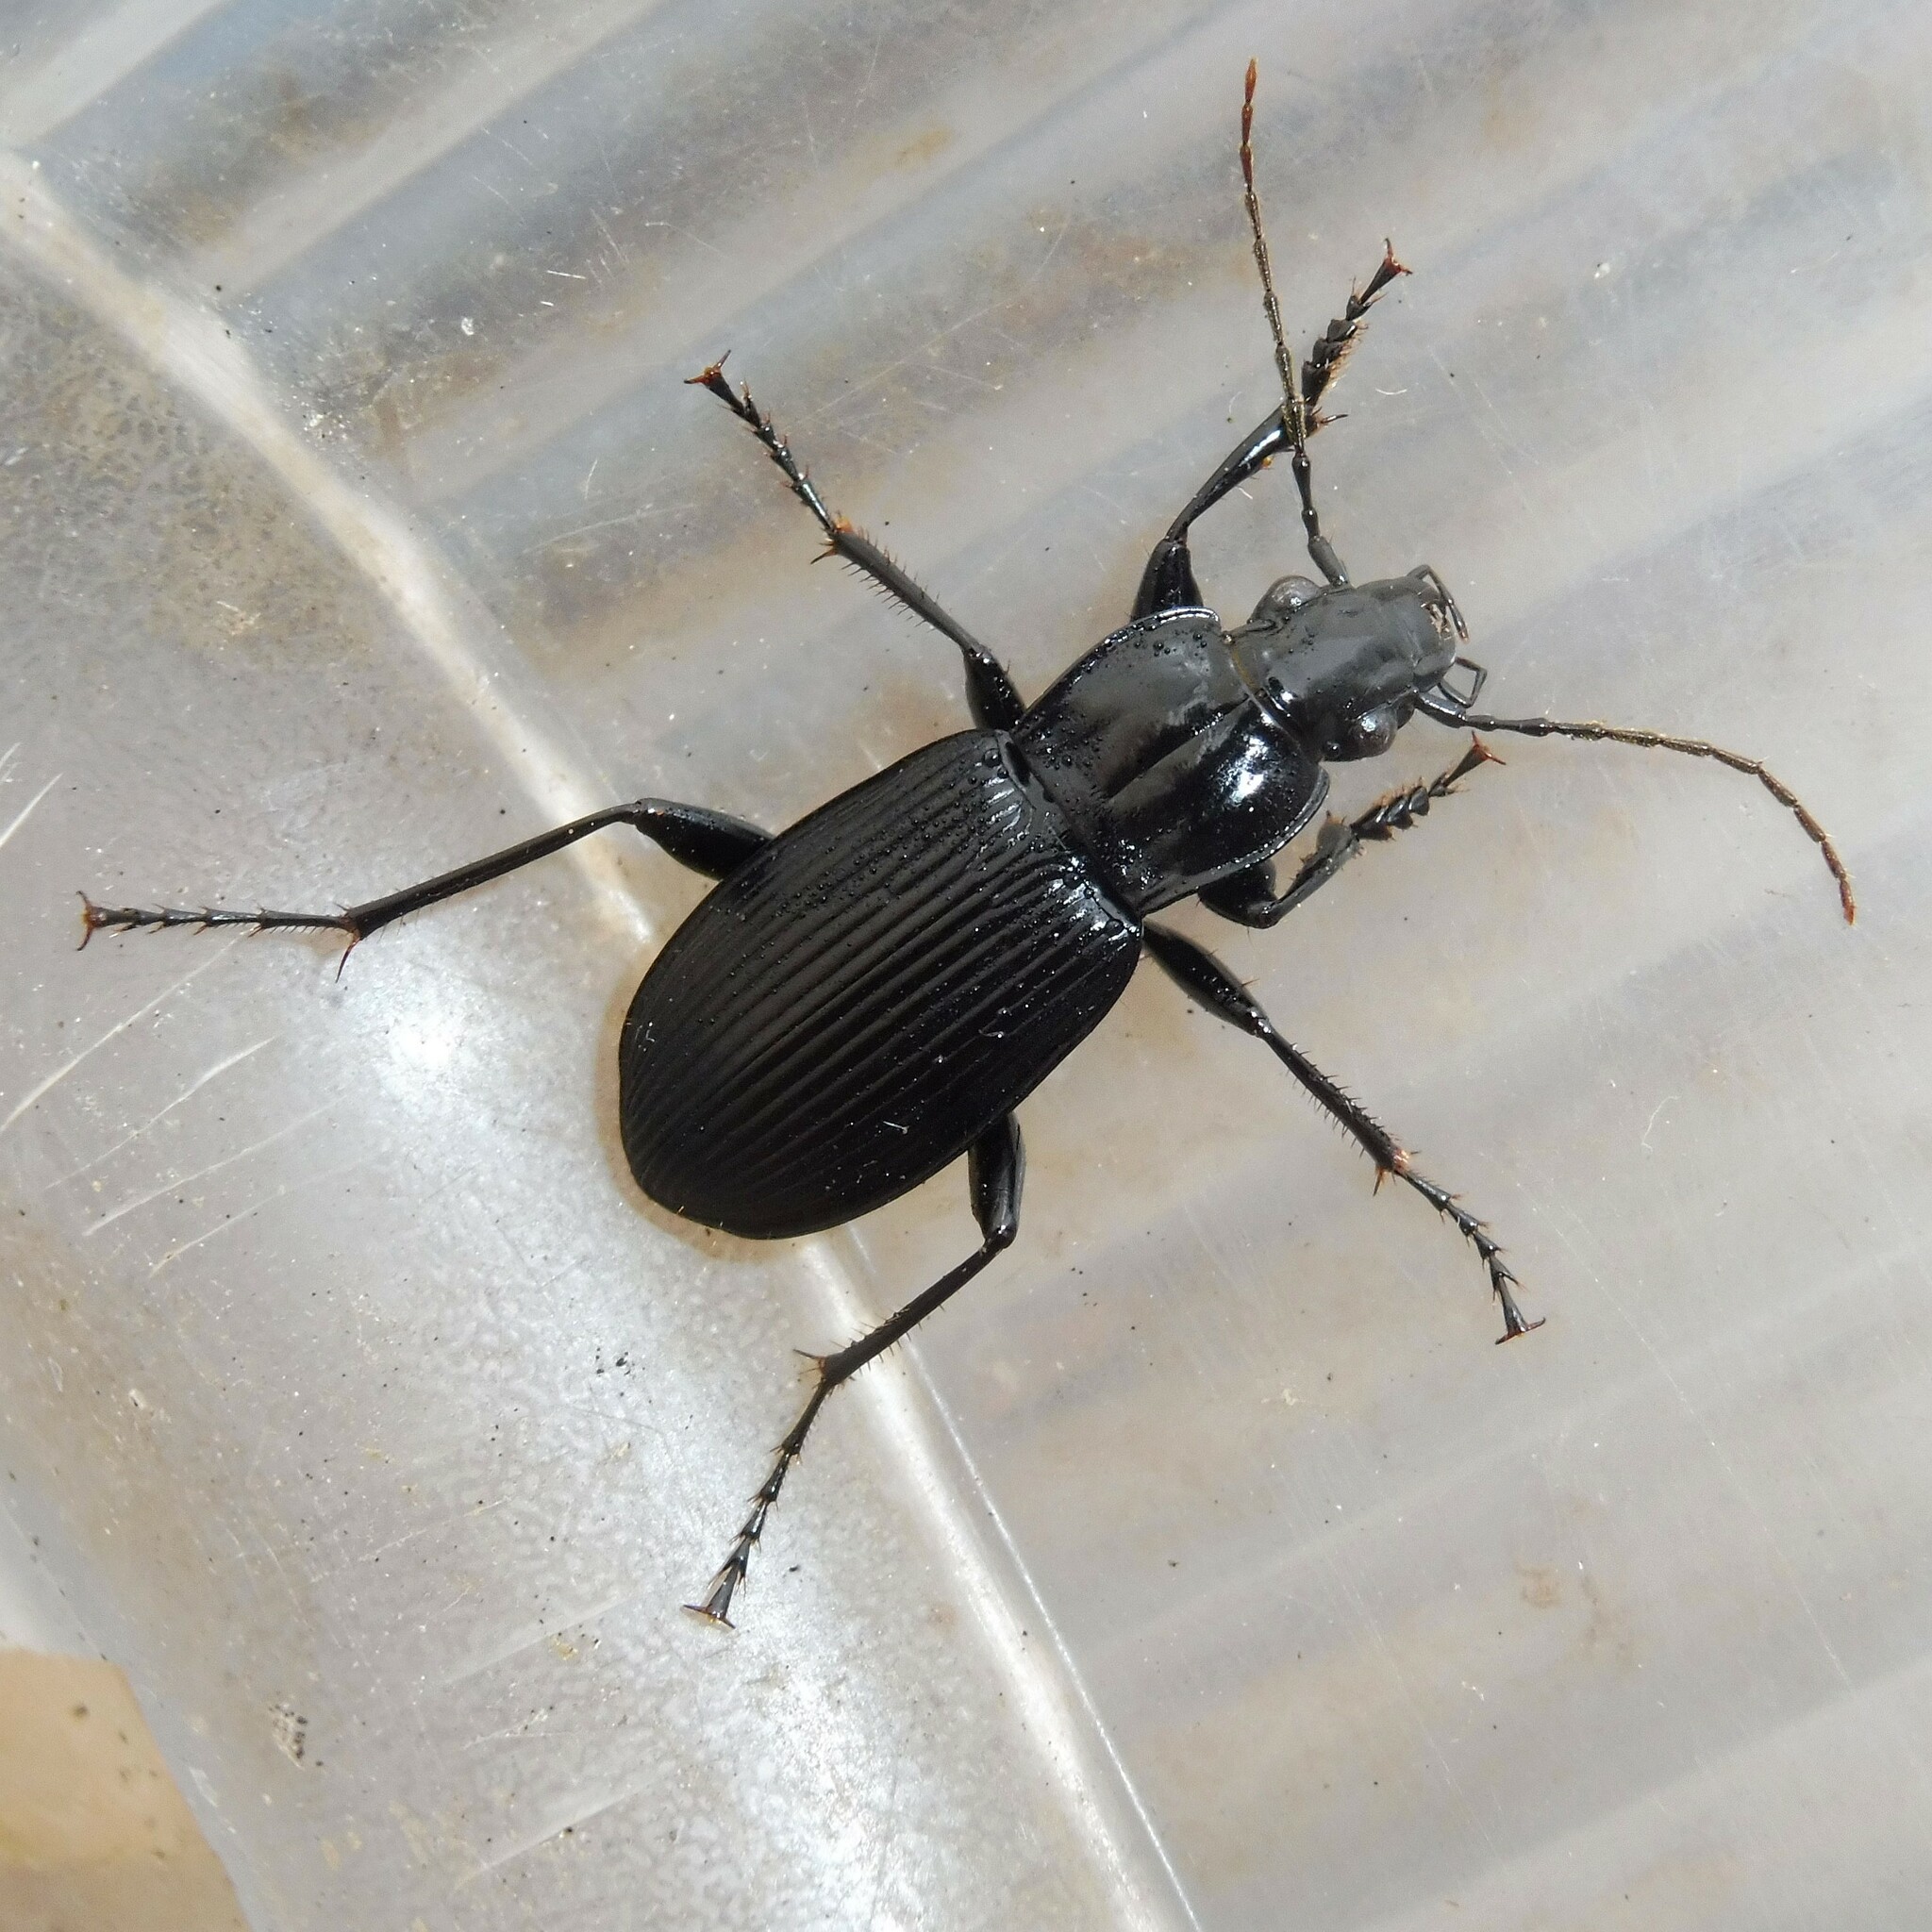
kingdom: Animalia
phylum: Arthropoda
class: Insecta
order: Coleoptera
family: Carabidae
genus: Pterostichus
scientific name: Pterostichus niger
